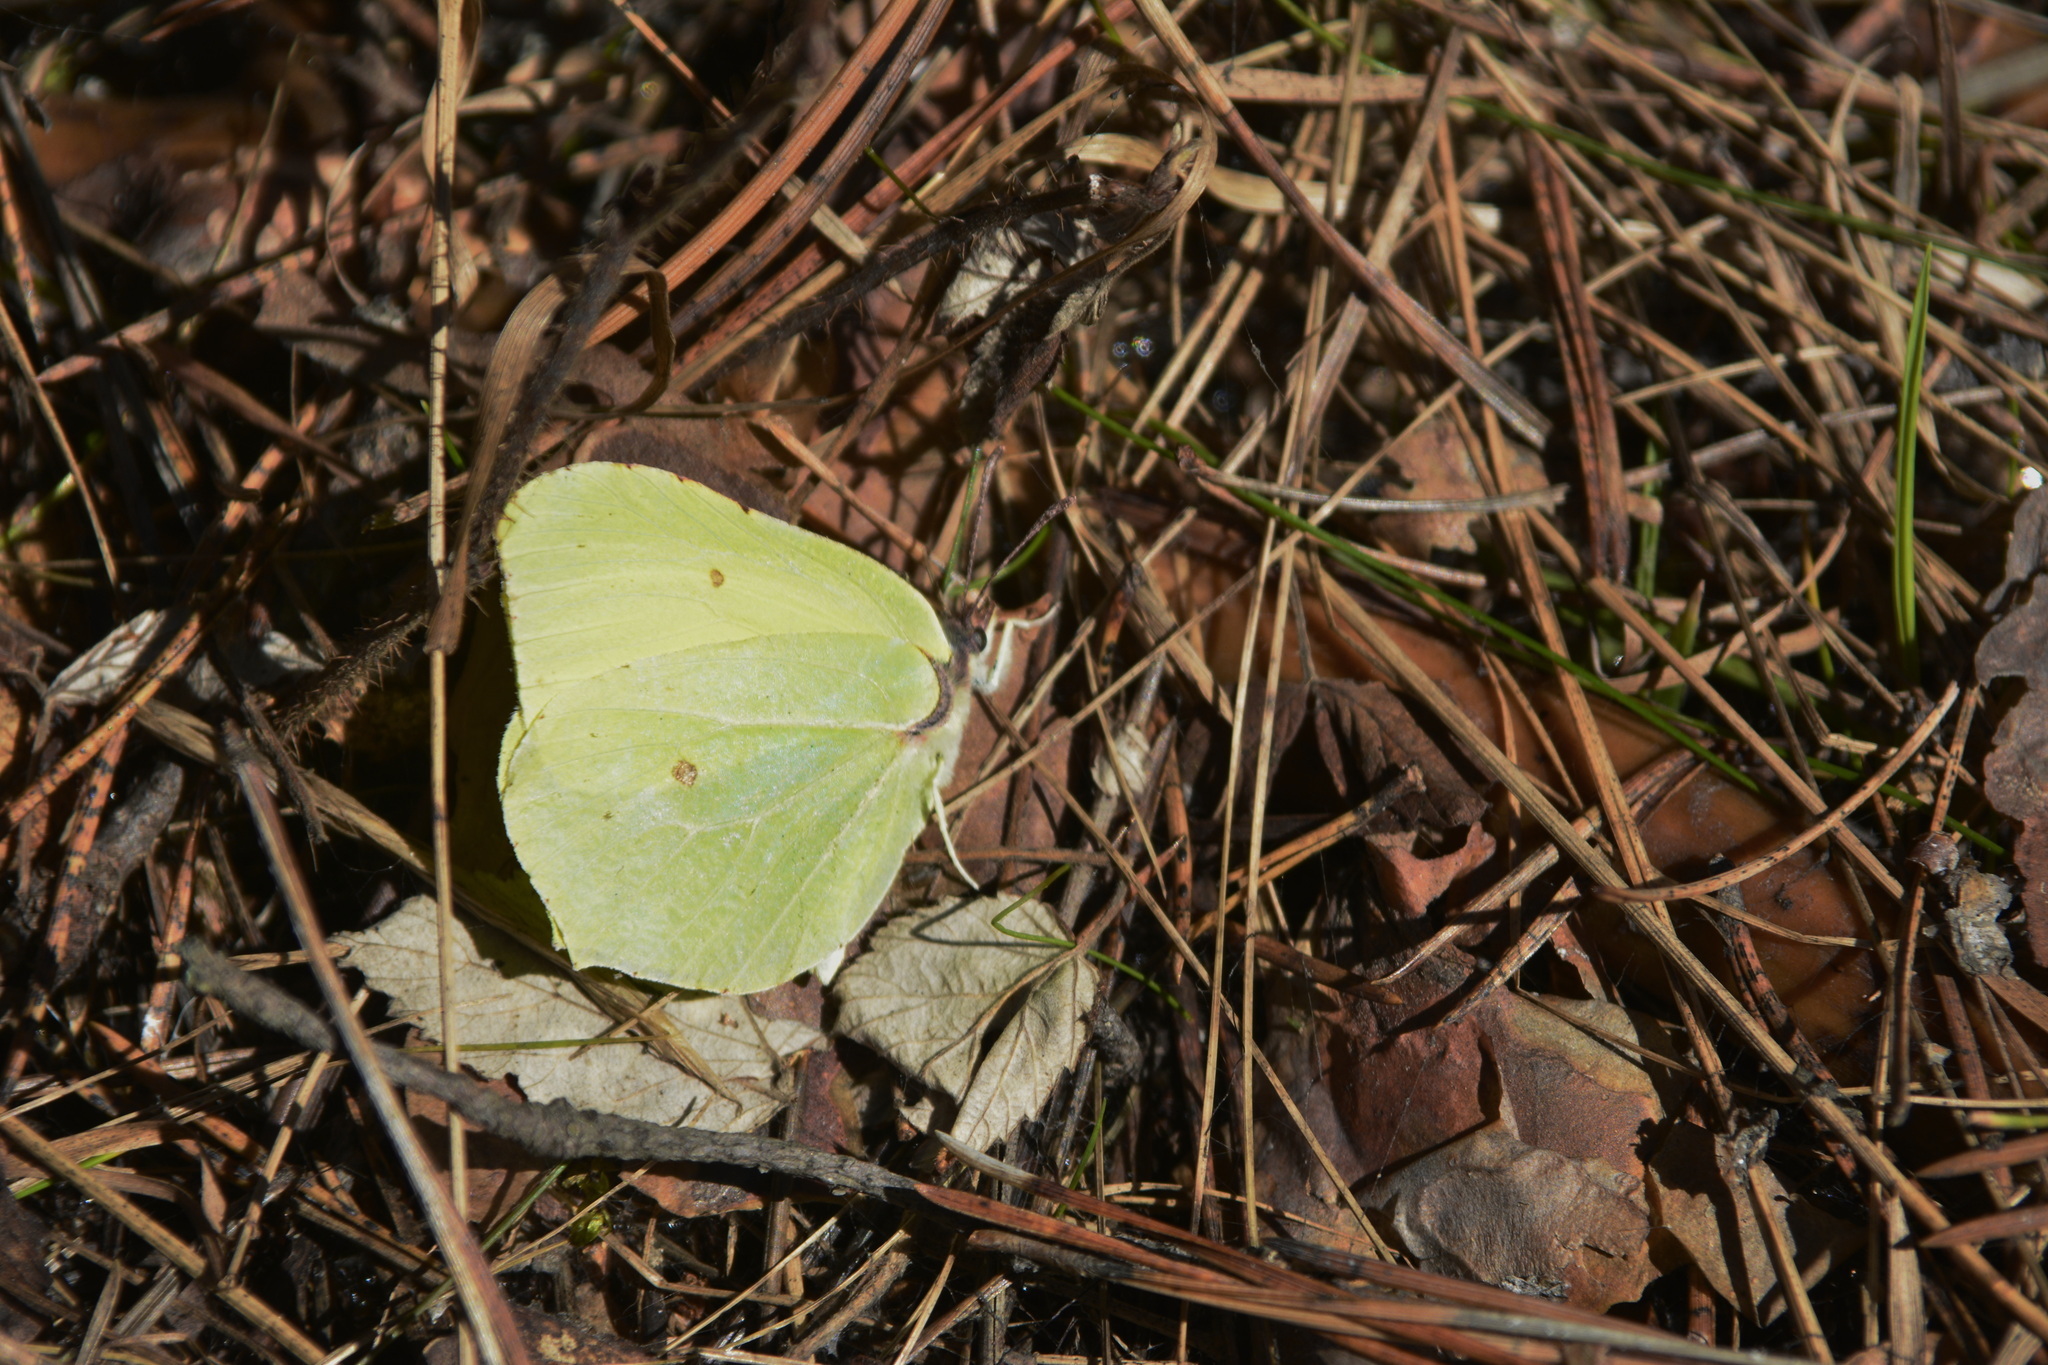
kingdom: Animalia
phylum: Arthropoda
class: Insecta
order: Lepidoptera
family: Pieridae
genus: Gonepteryx
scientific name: Gonepteryx rhamni
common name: Brimstone
